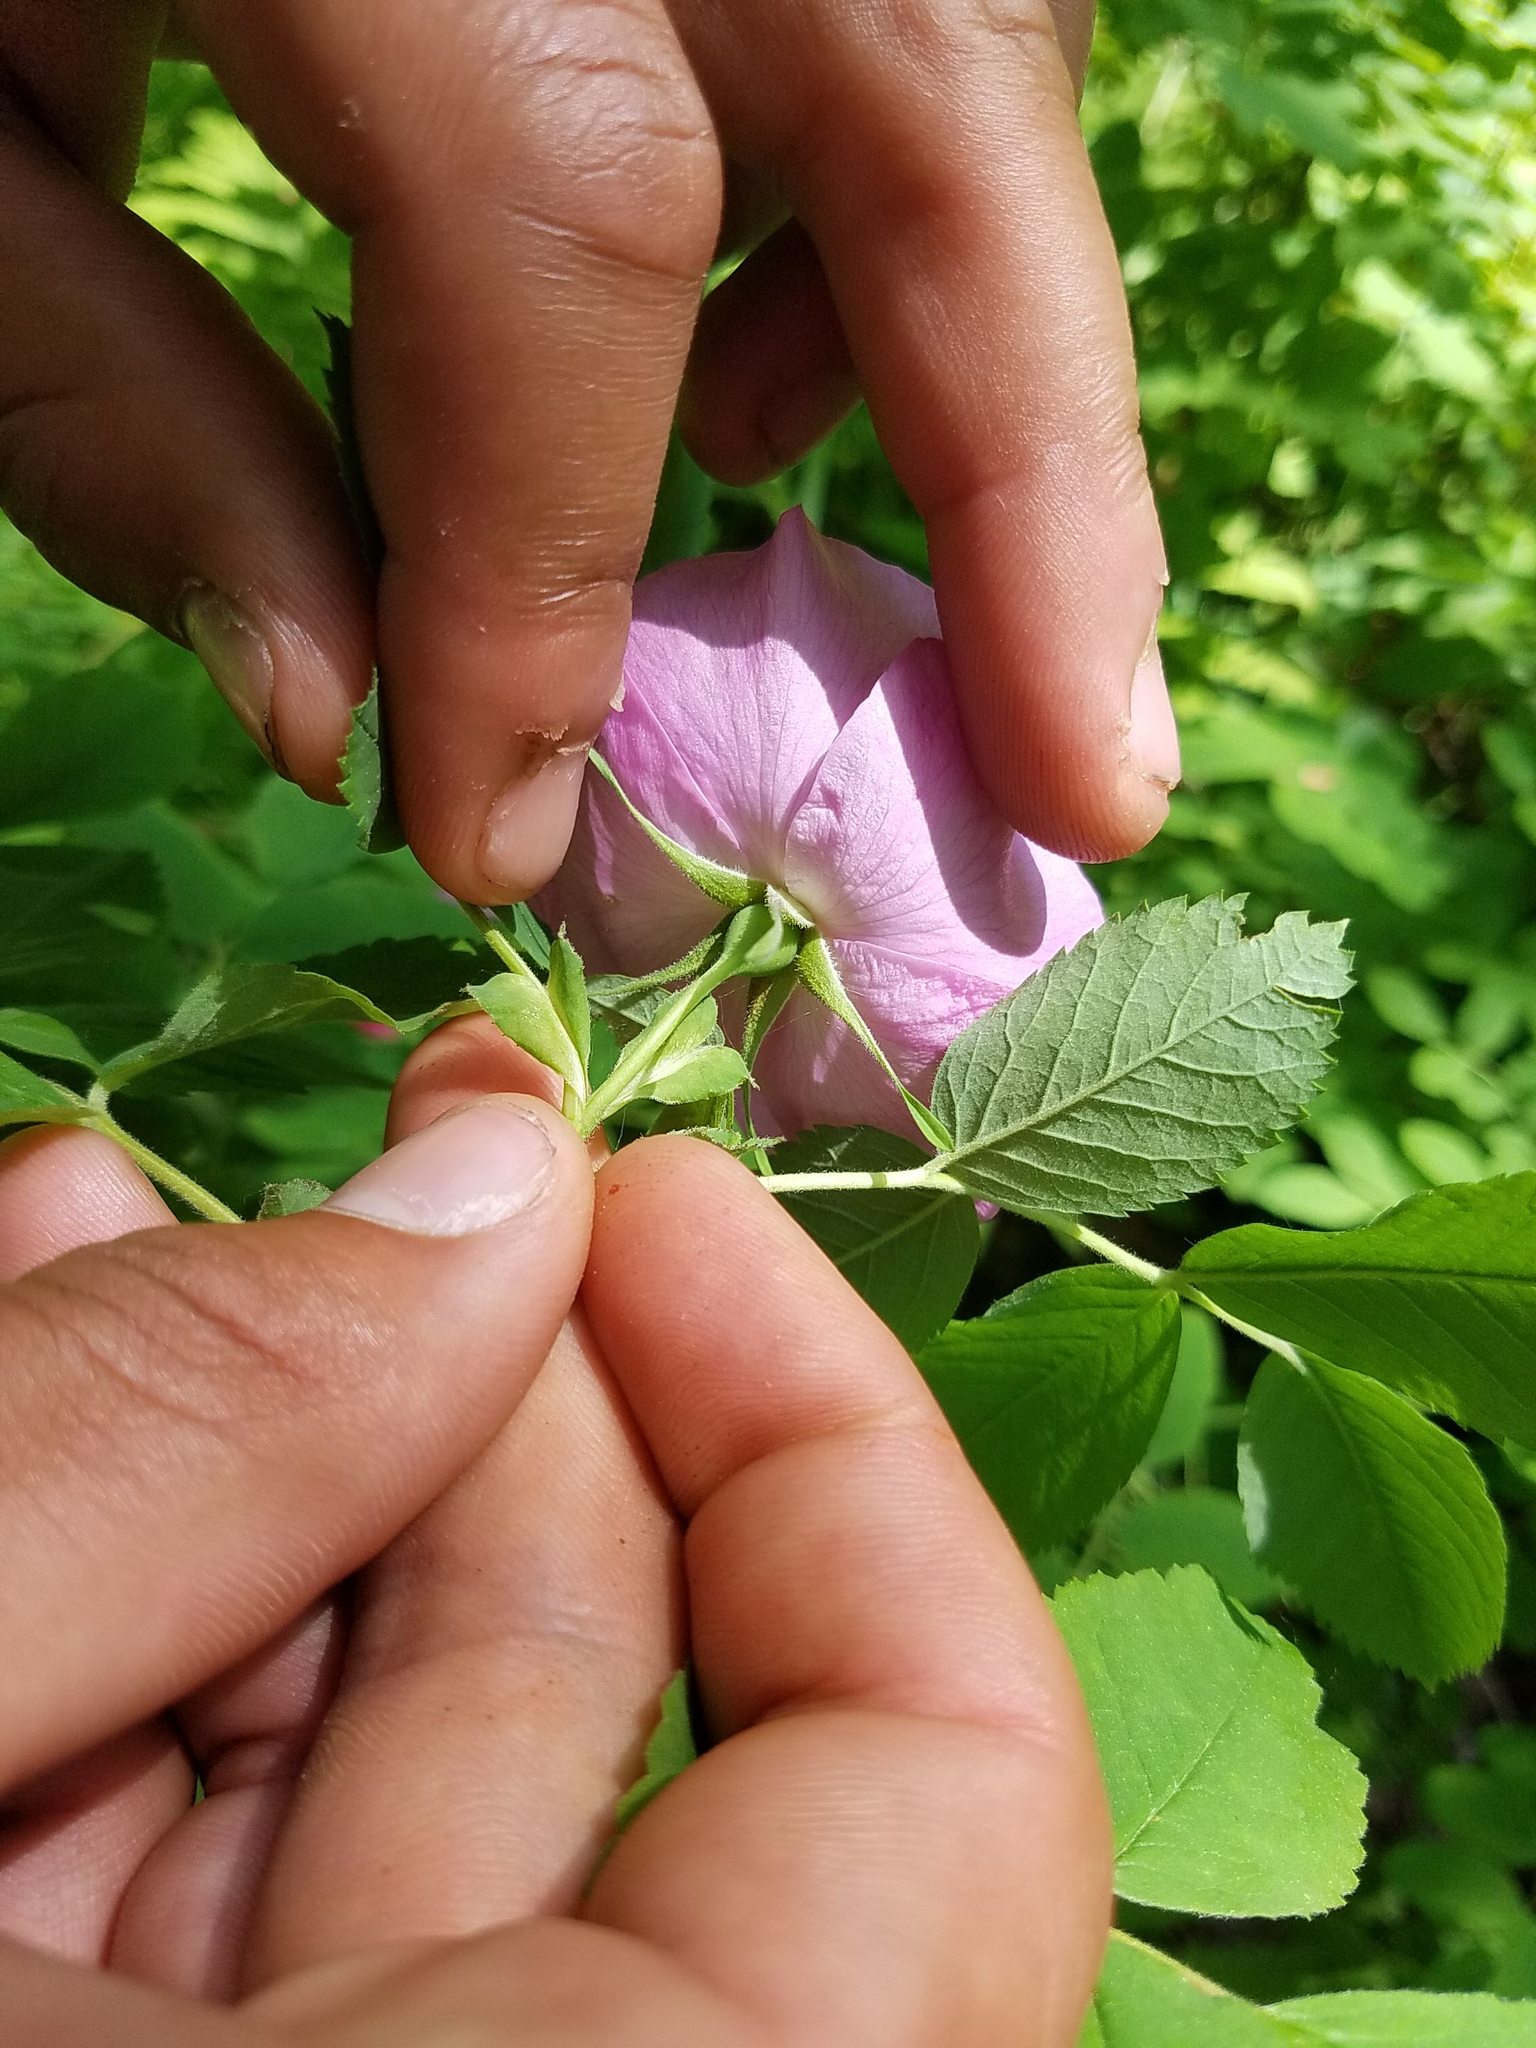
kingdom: Plantae
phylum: Tracheophyta
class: Magnoliopsida
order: Rosales
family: Rosaceae
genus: Rosa
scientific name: Rosa blanda
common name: Smooth rose
